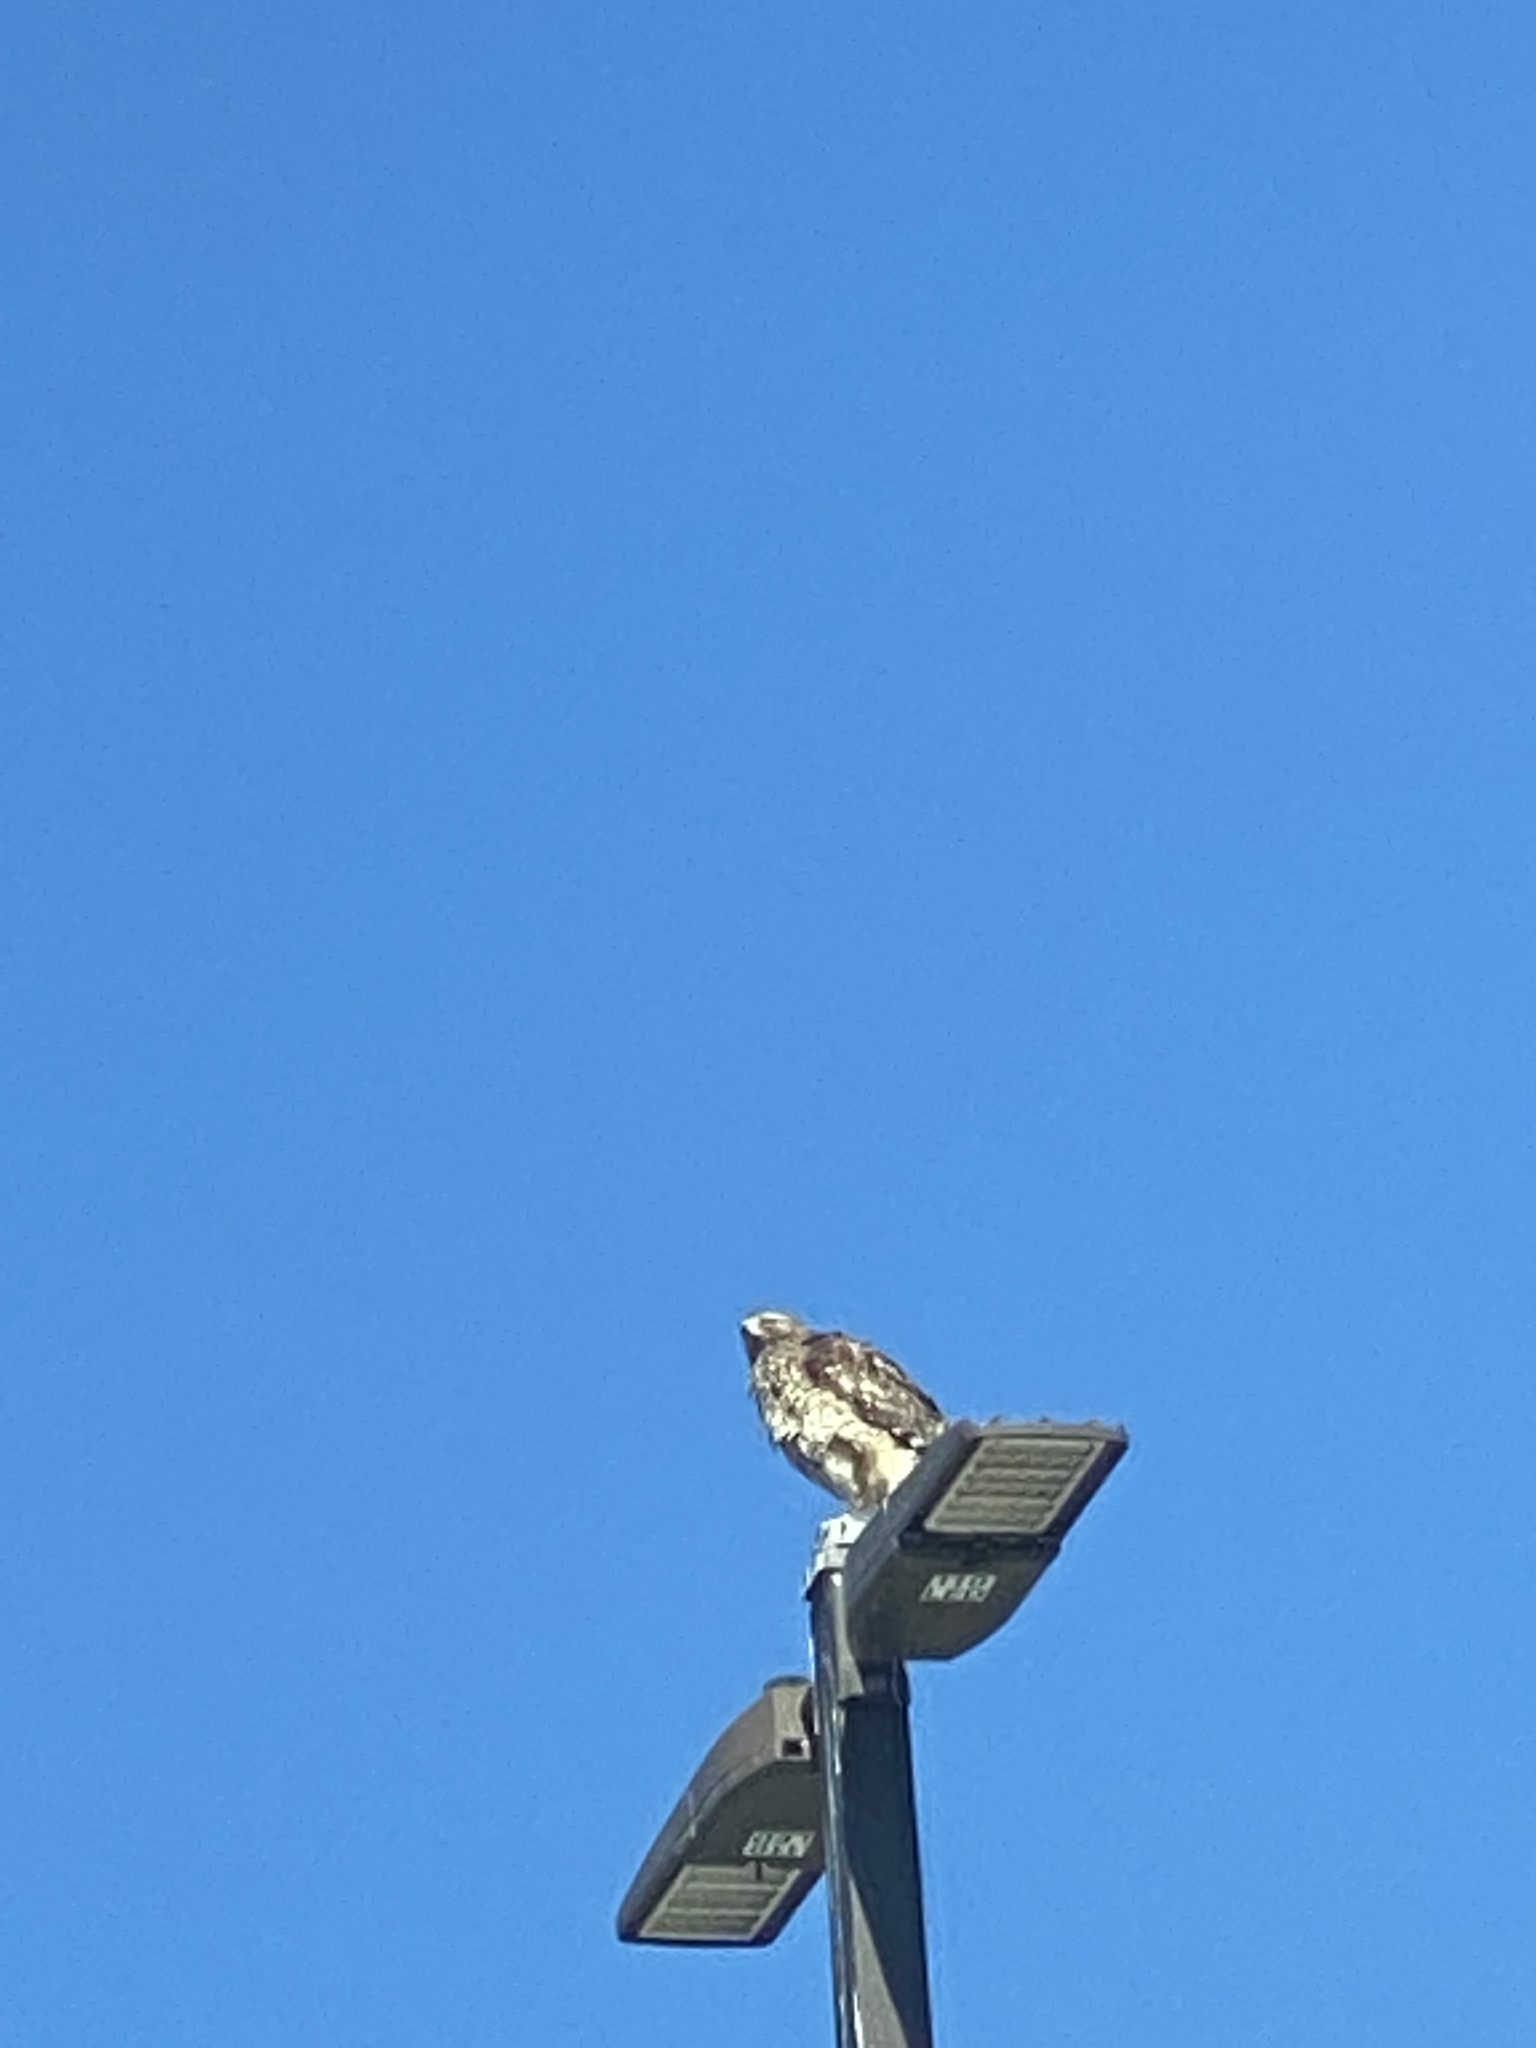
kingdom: Animalia
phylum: Chordata
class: Aves
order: Accipitriformes
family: Accipitridae
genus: Buteo
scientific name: Buteo jamaicensis
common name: Red-tailed hawk
